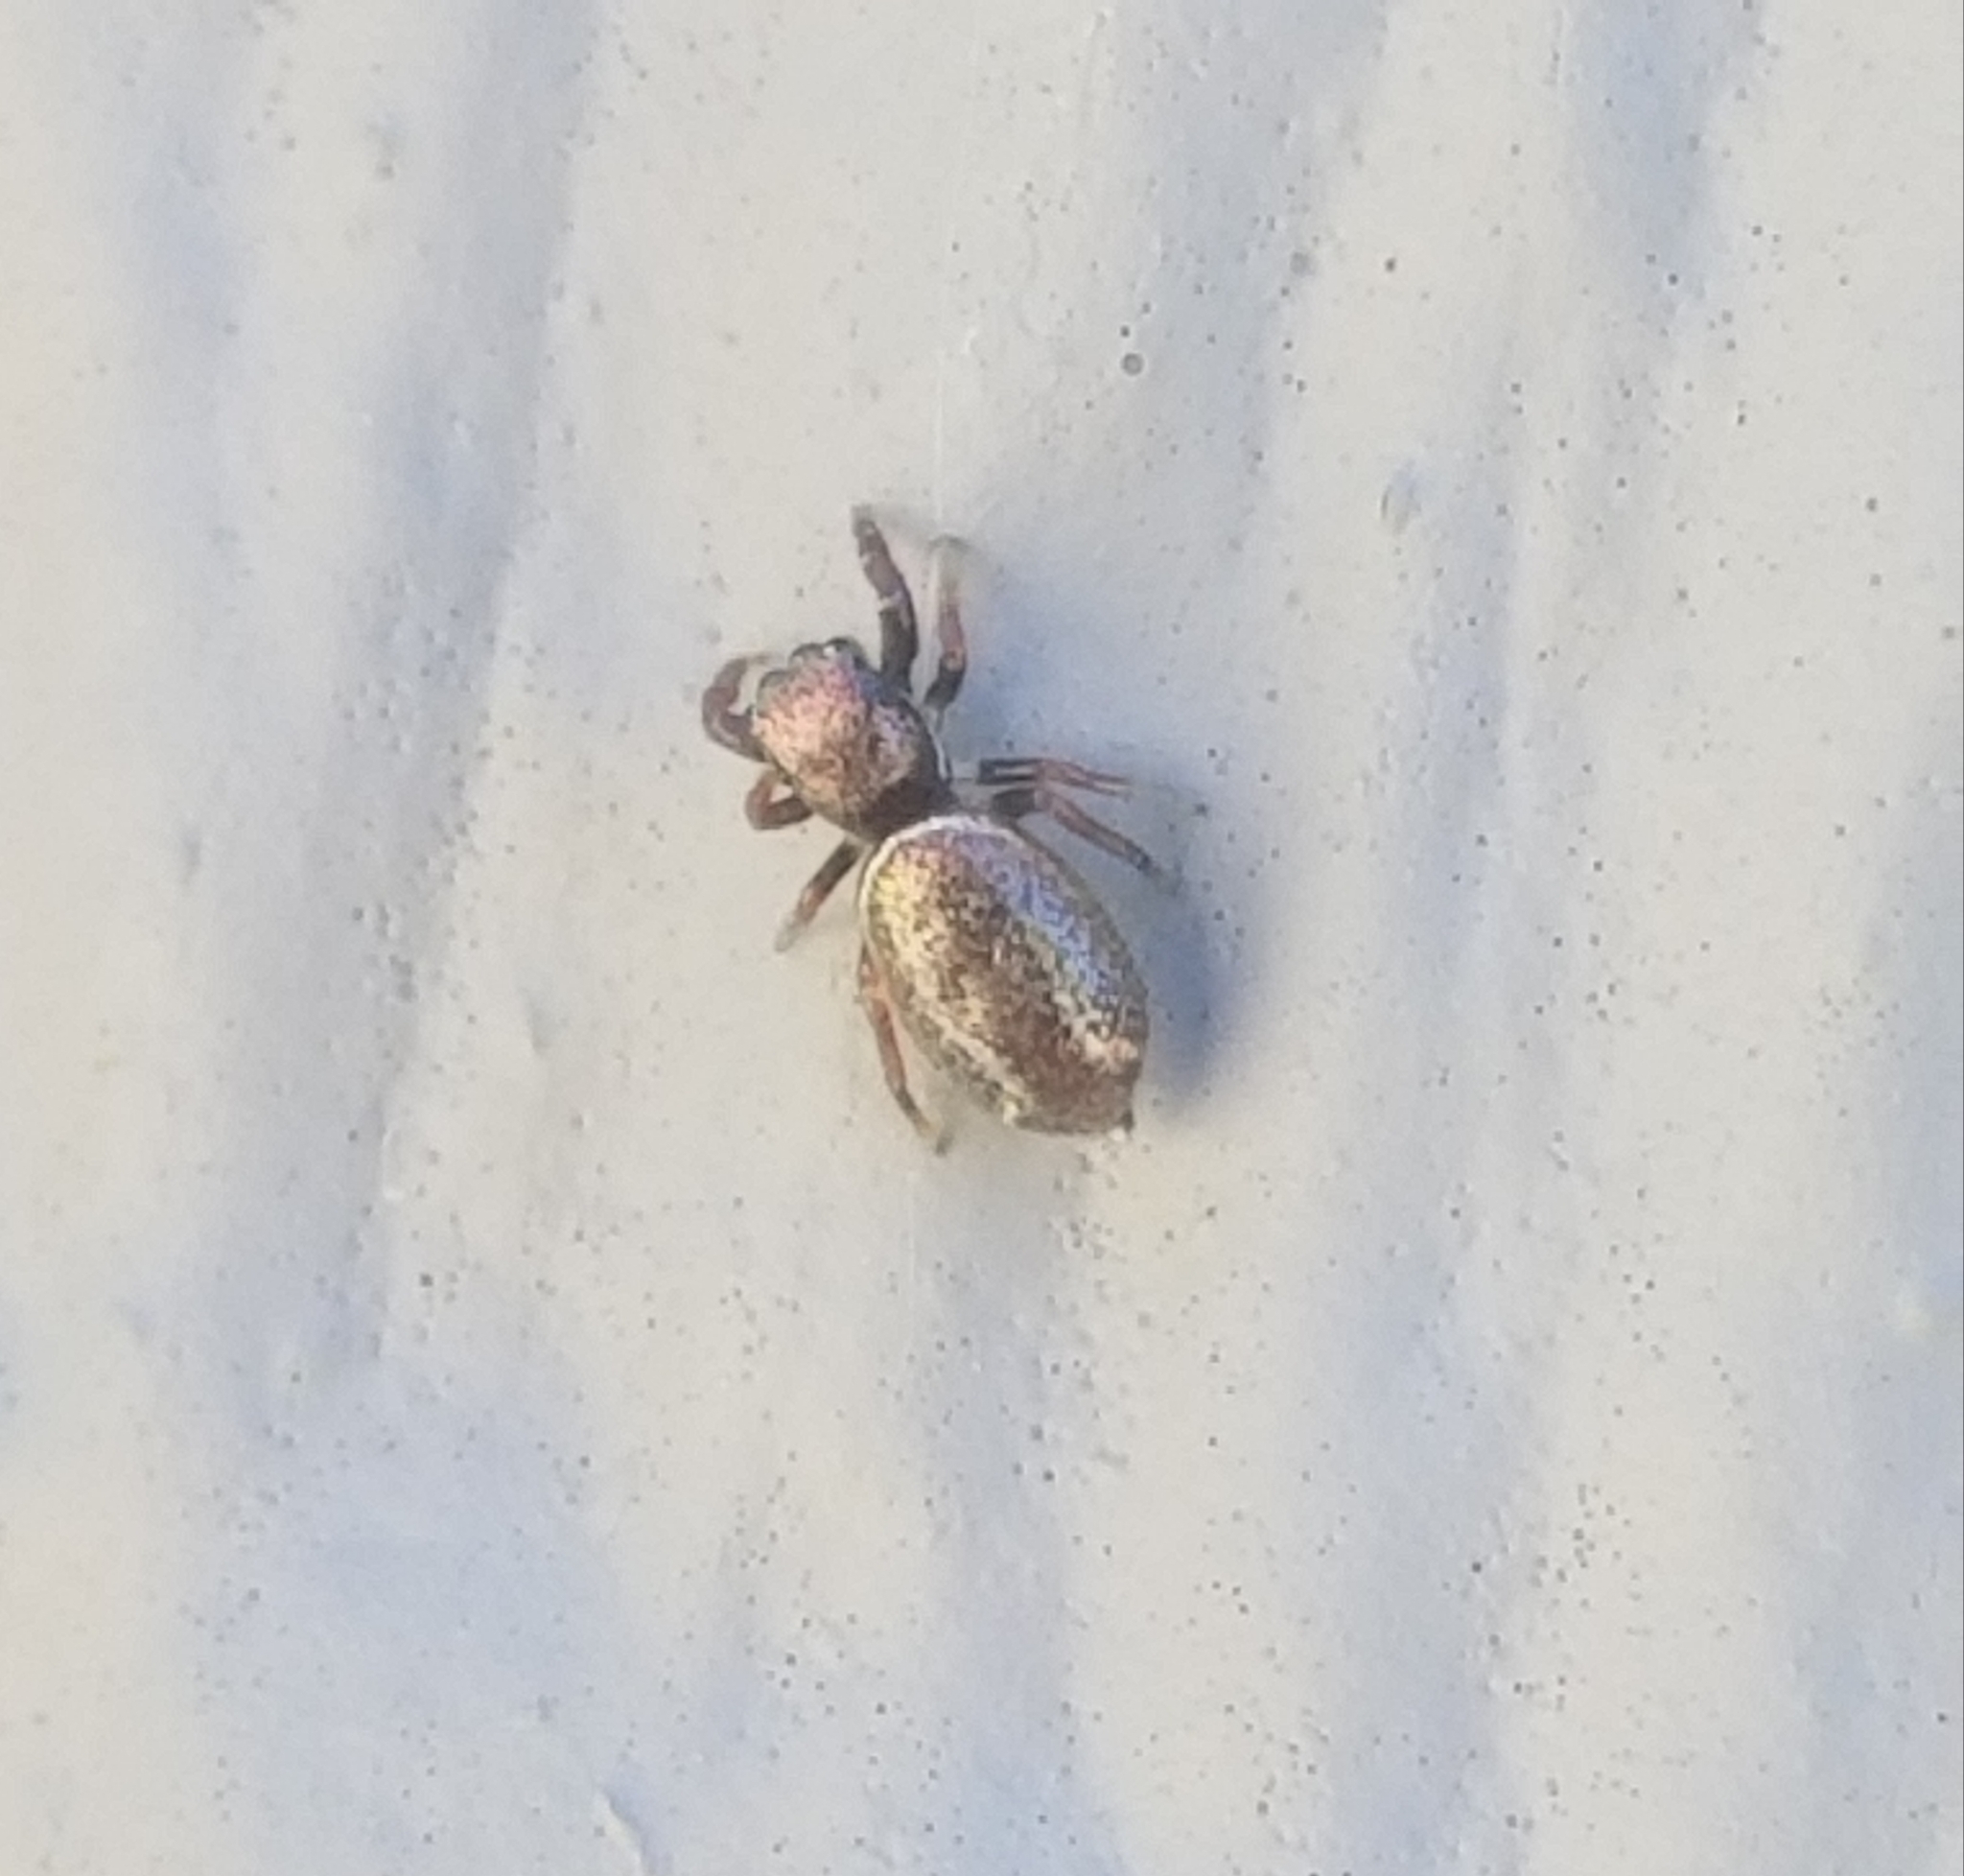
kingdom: Animalia
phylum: Arthropoda
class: Arachnida
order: Araneae
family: Salticidae
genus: Sassacus
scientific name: Sassacus vitis
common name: Jumping spiders
